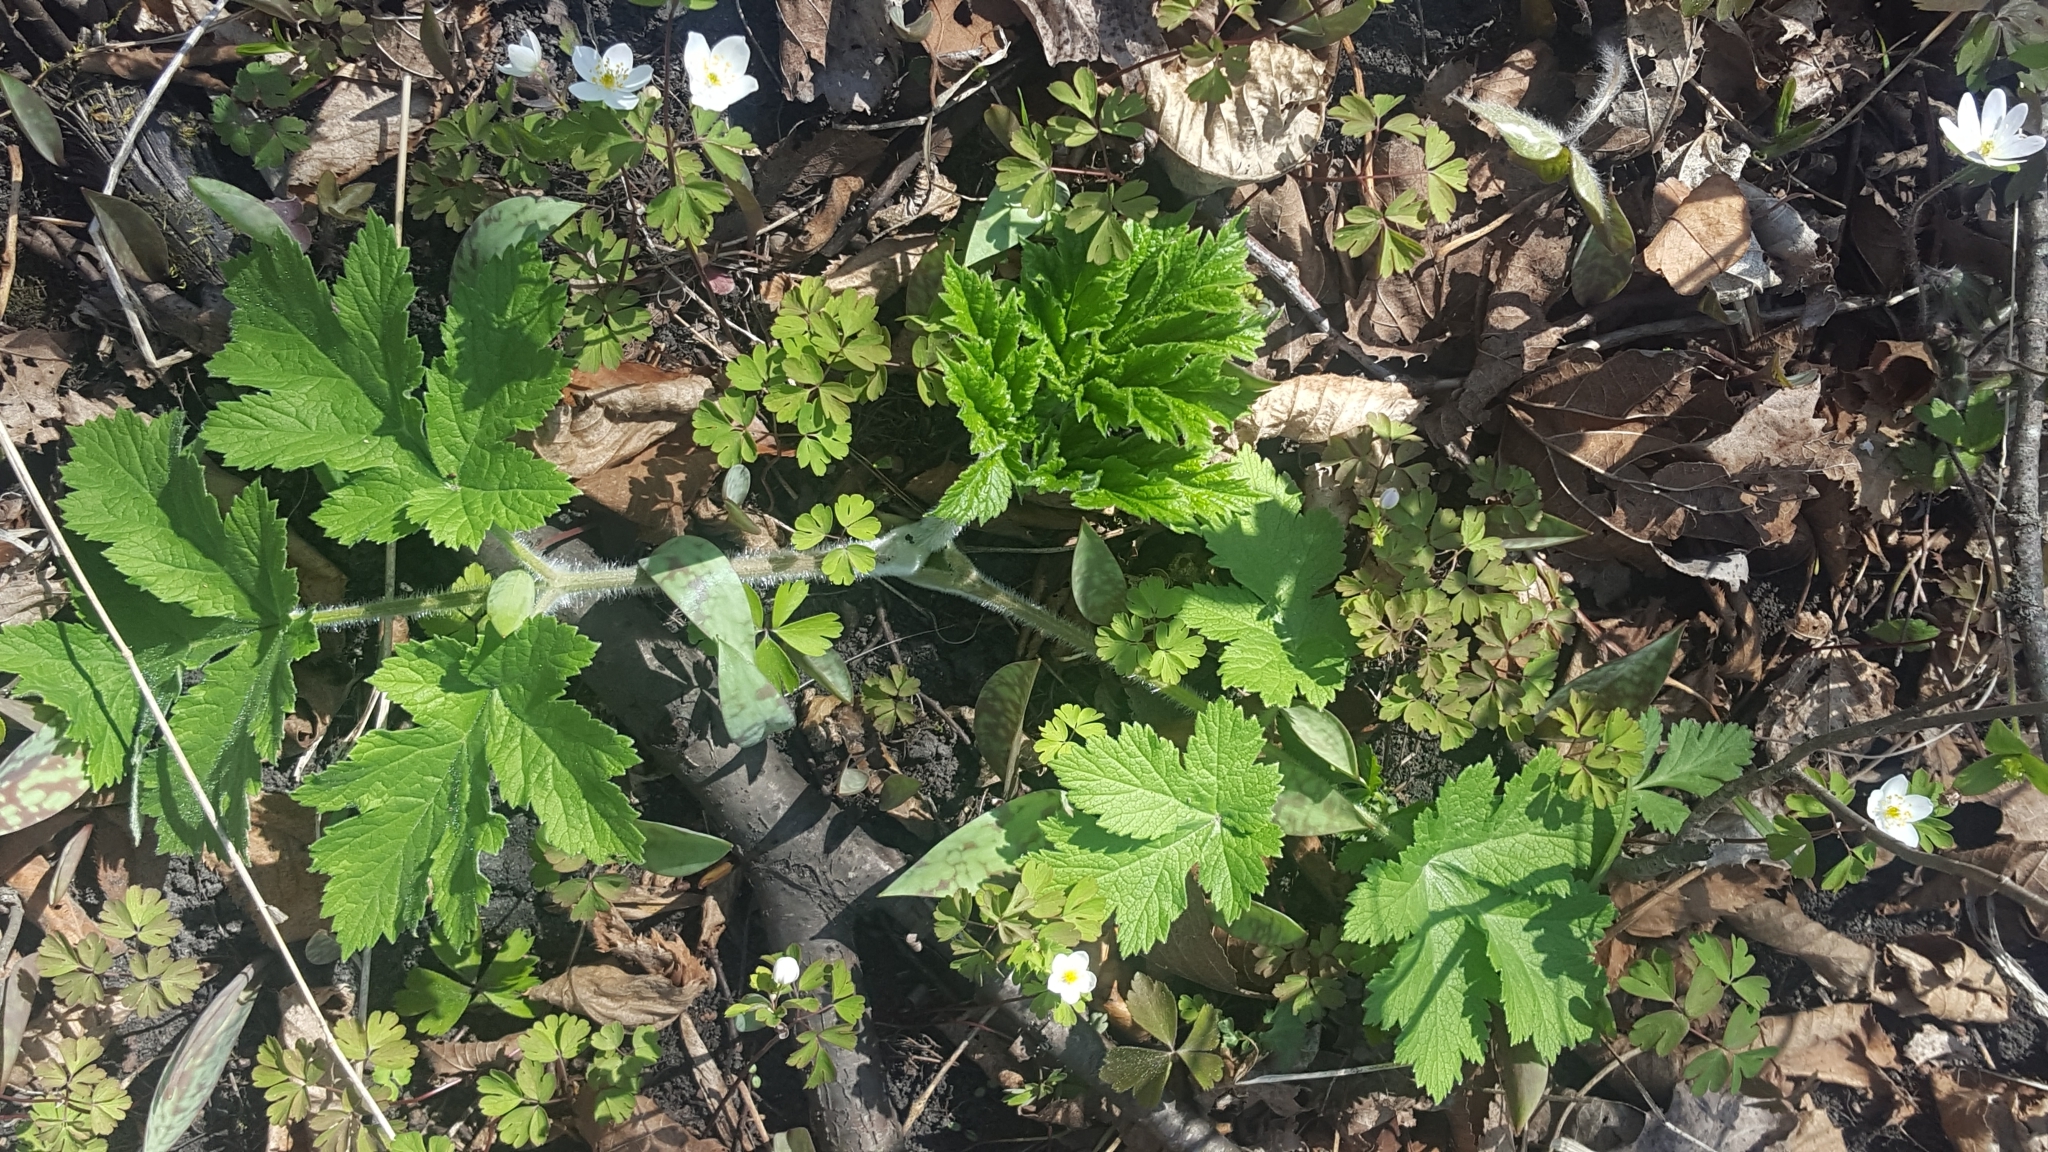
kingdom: Plantae
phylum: Tracheophyta
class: Magnoliopsida
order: Apiales
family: Apiaceae
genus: Heracleum
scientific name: Heracleum maximum
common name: American cow parsnip
